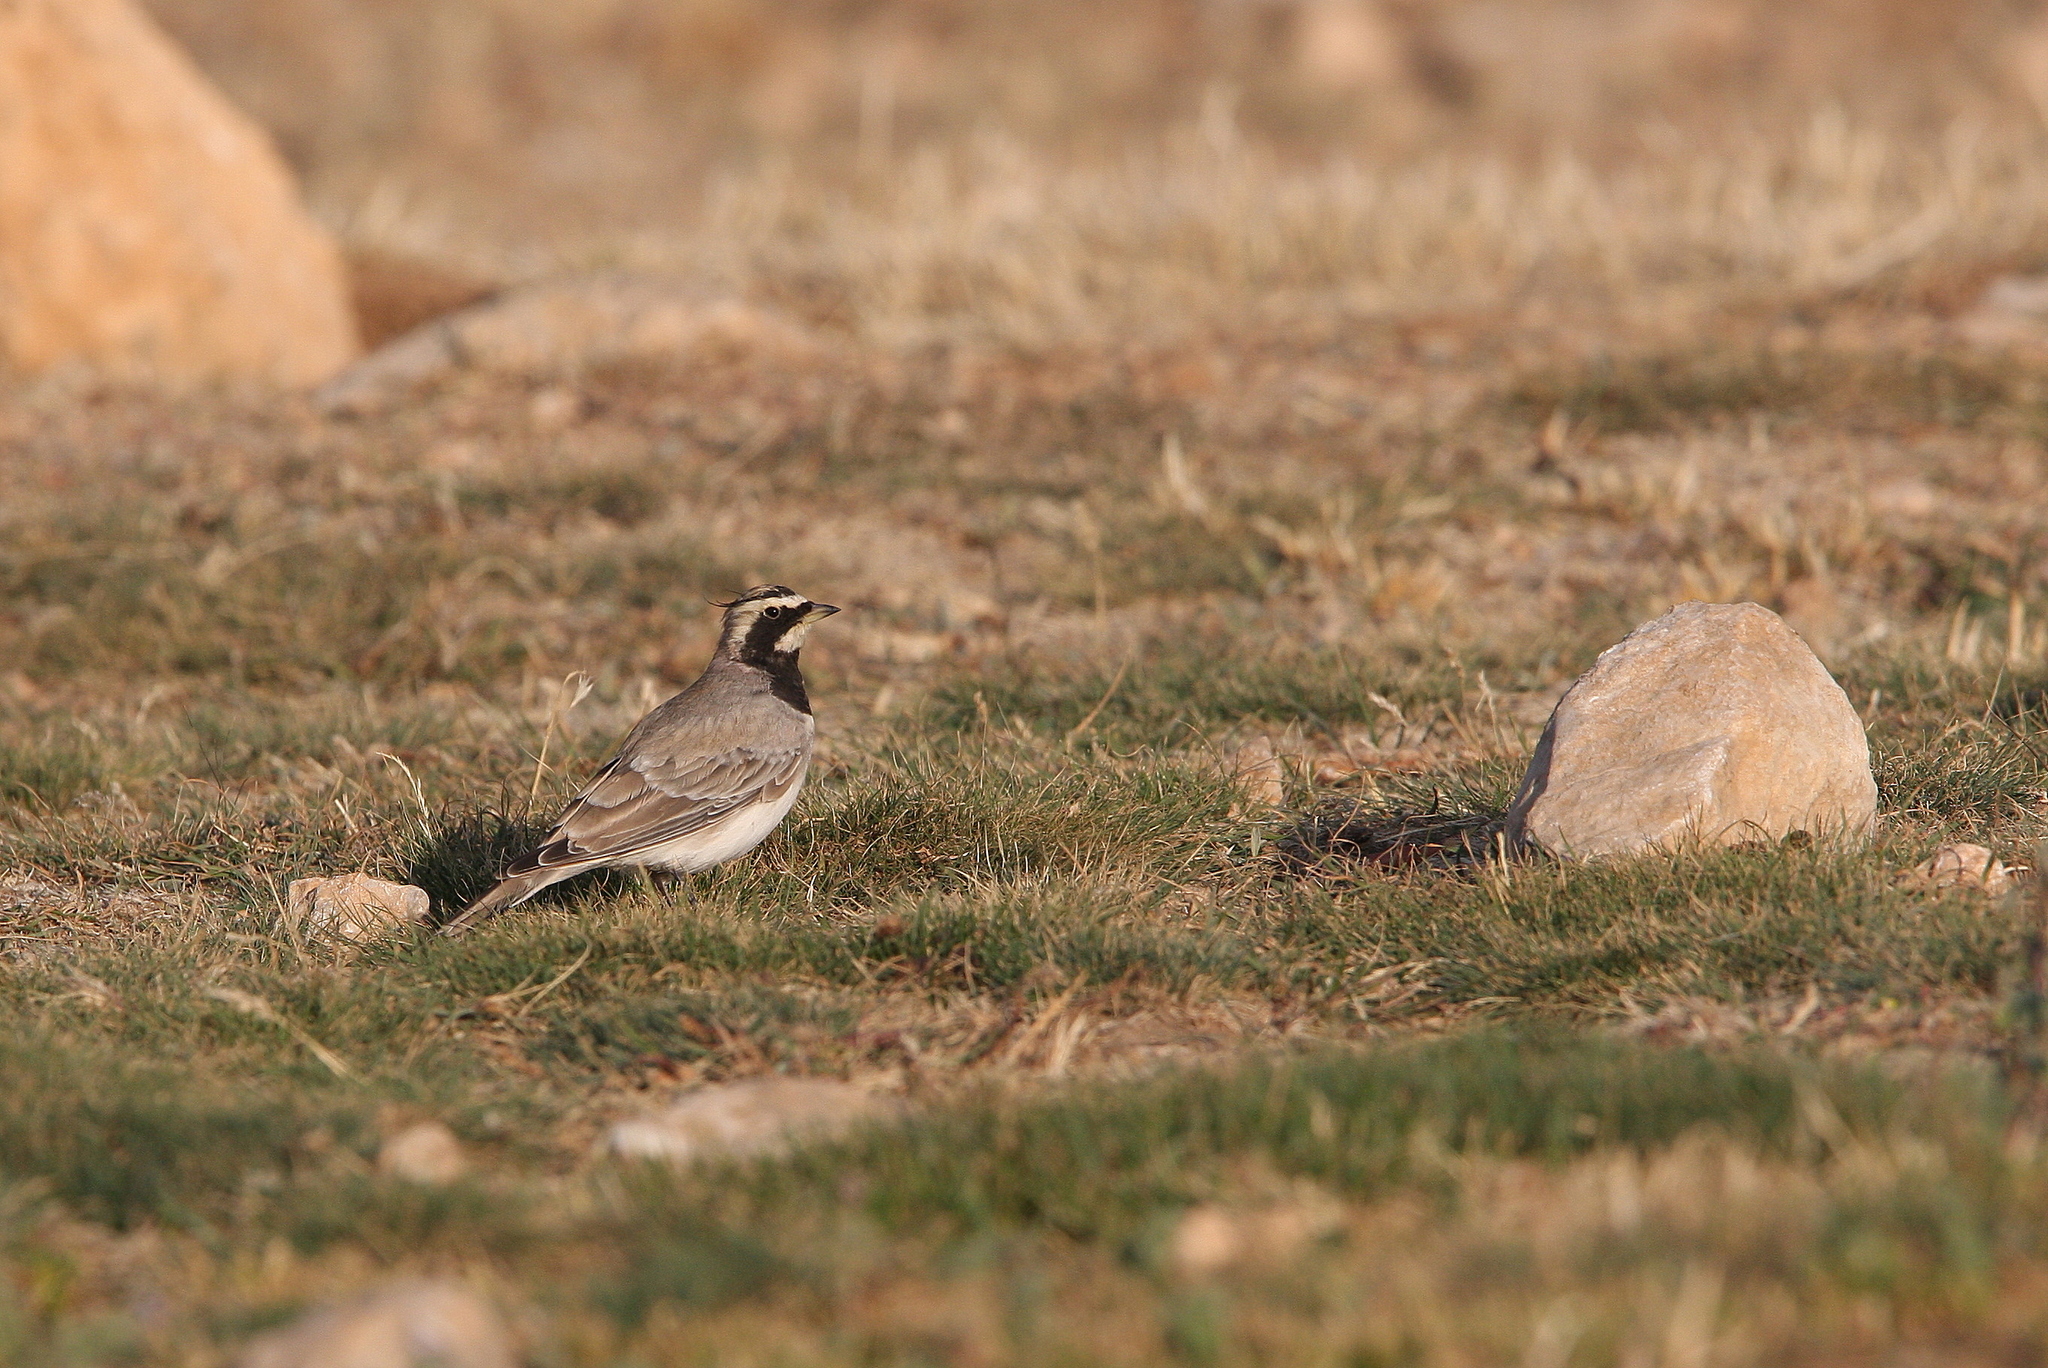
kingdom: Animalia
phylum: Chordata
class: Aves
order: Passeriformes
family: Alaudidae
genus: Eremophila
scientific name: Eremophila alpestris
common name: Horned lark
